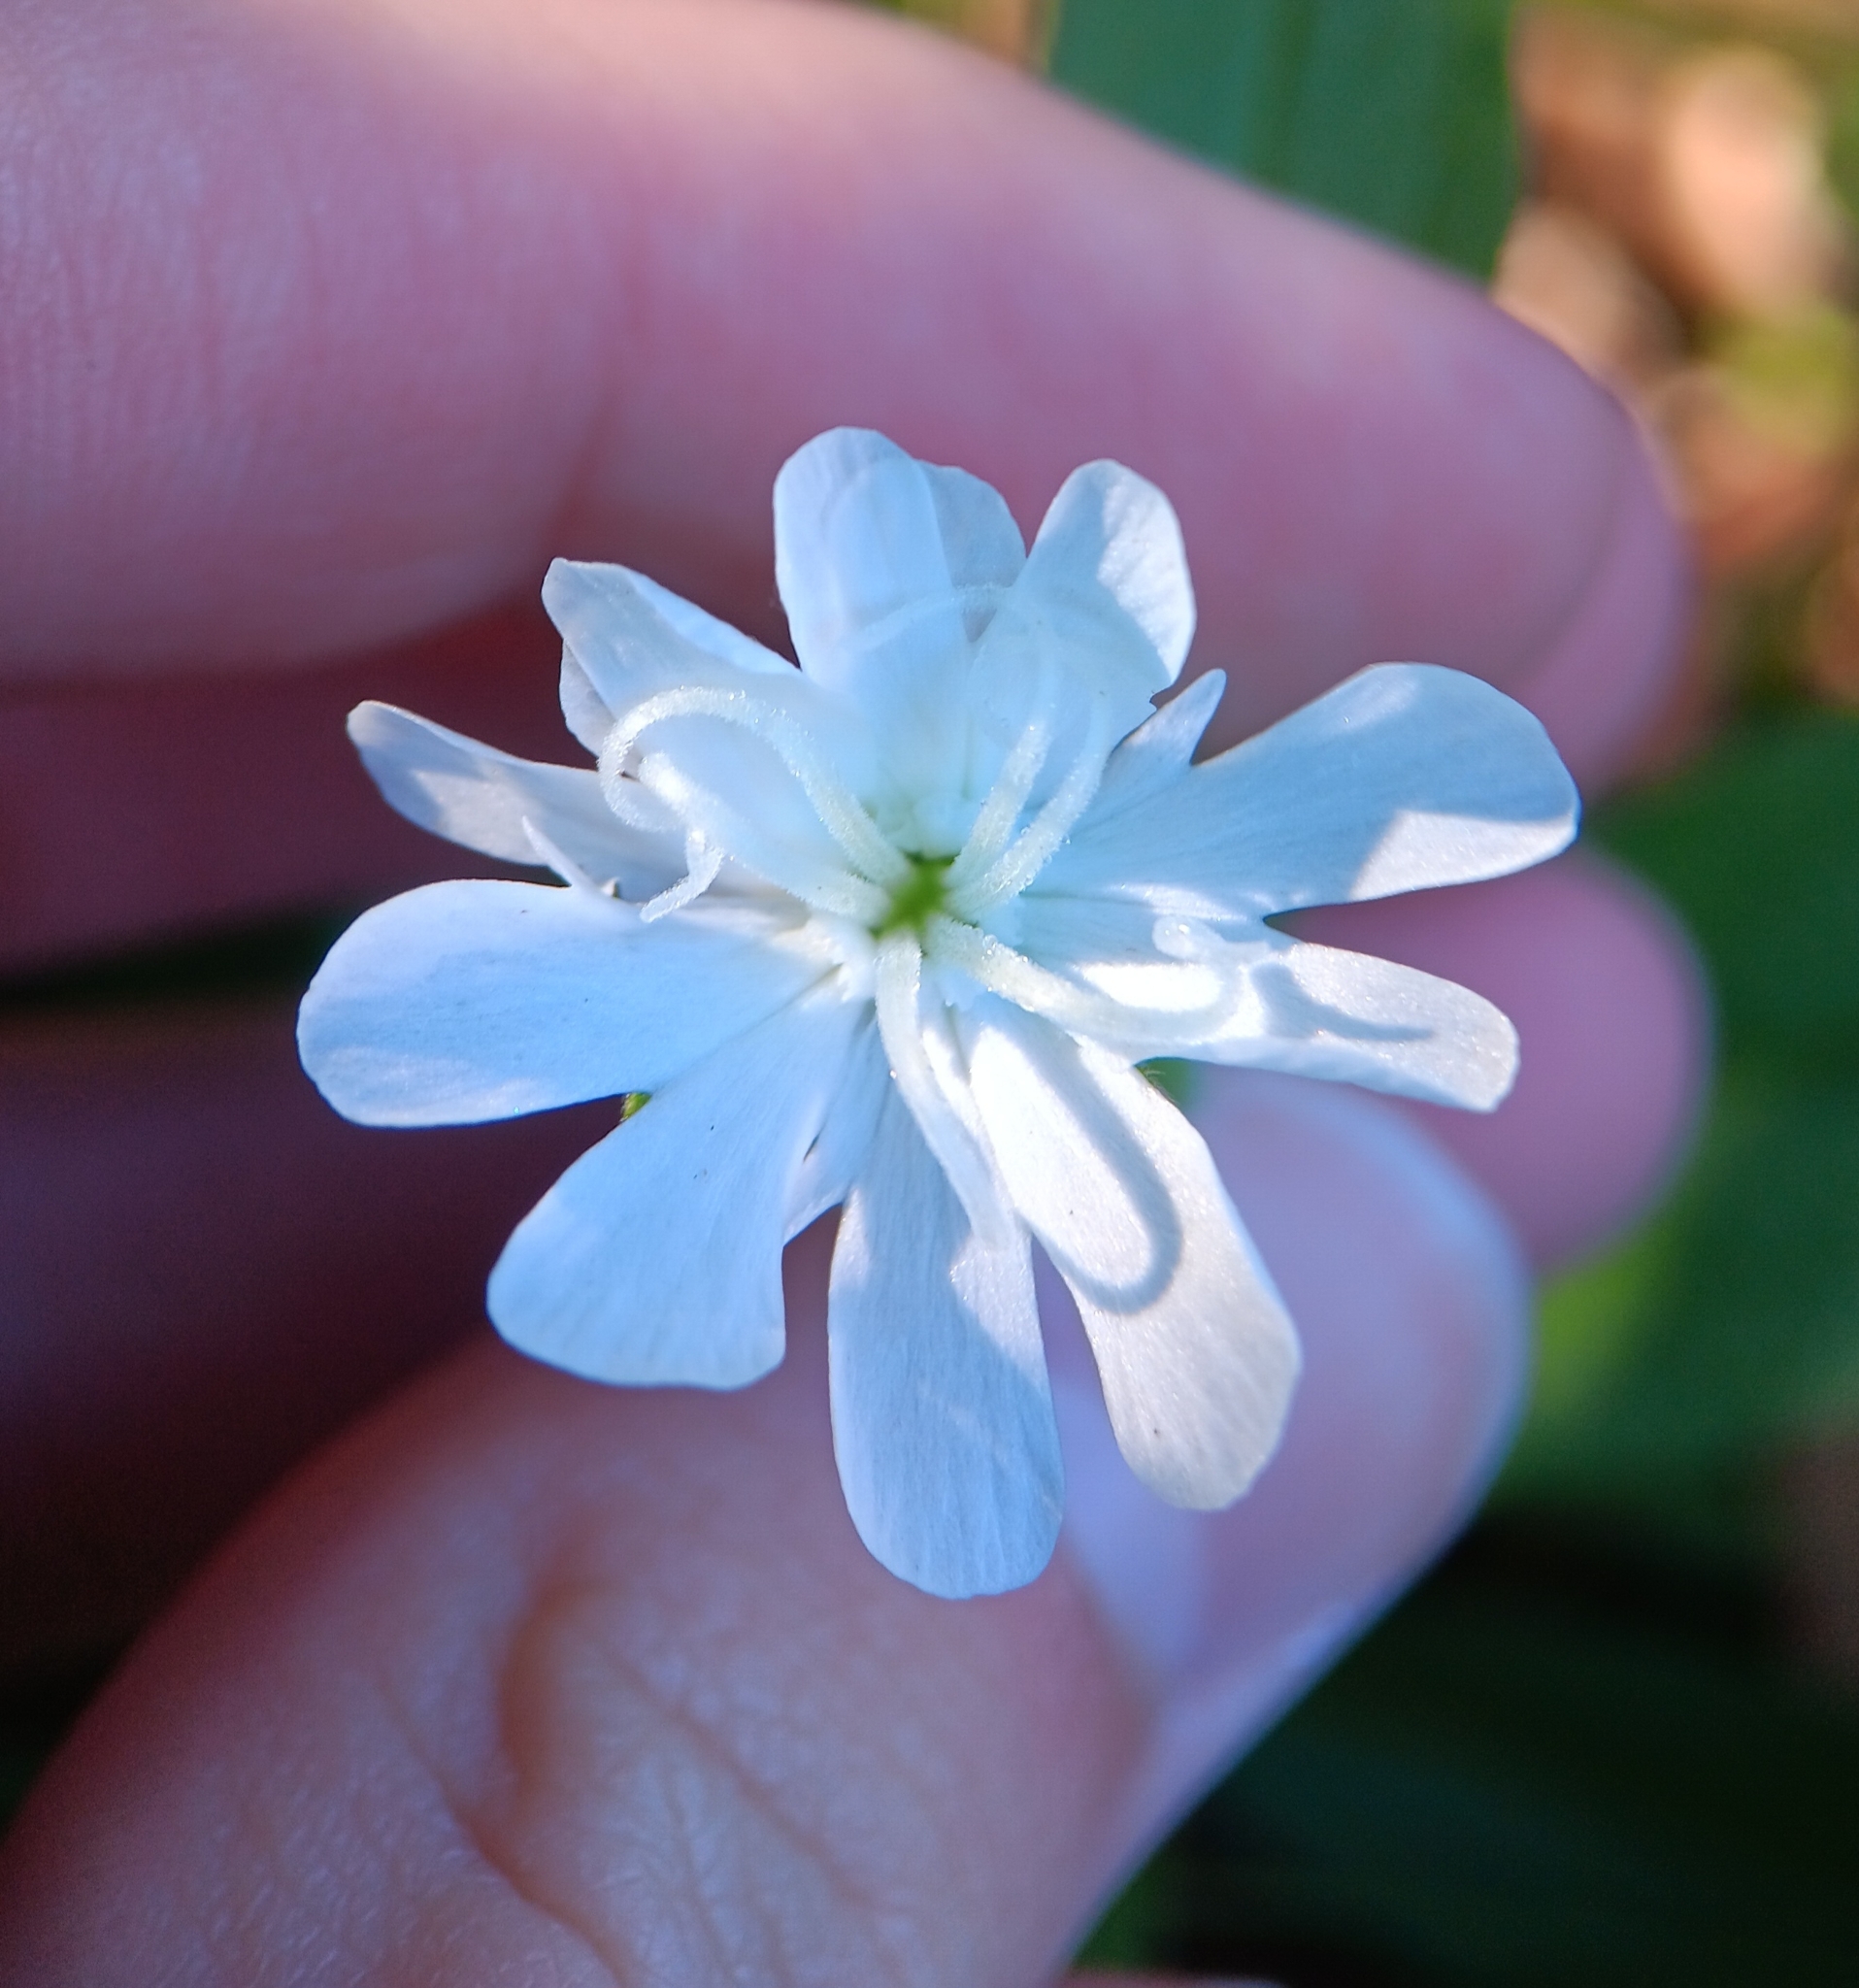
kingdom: Plantae
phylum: Tracheophyta
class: Magnoliopsida
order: Caryophyllales
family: Caryophyllaceae
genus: Silene
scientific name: Silene latifolia
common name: White campion
